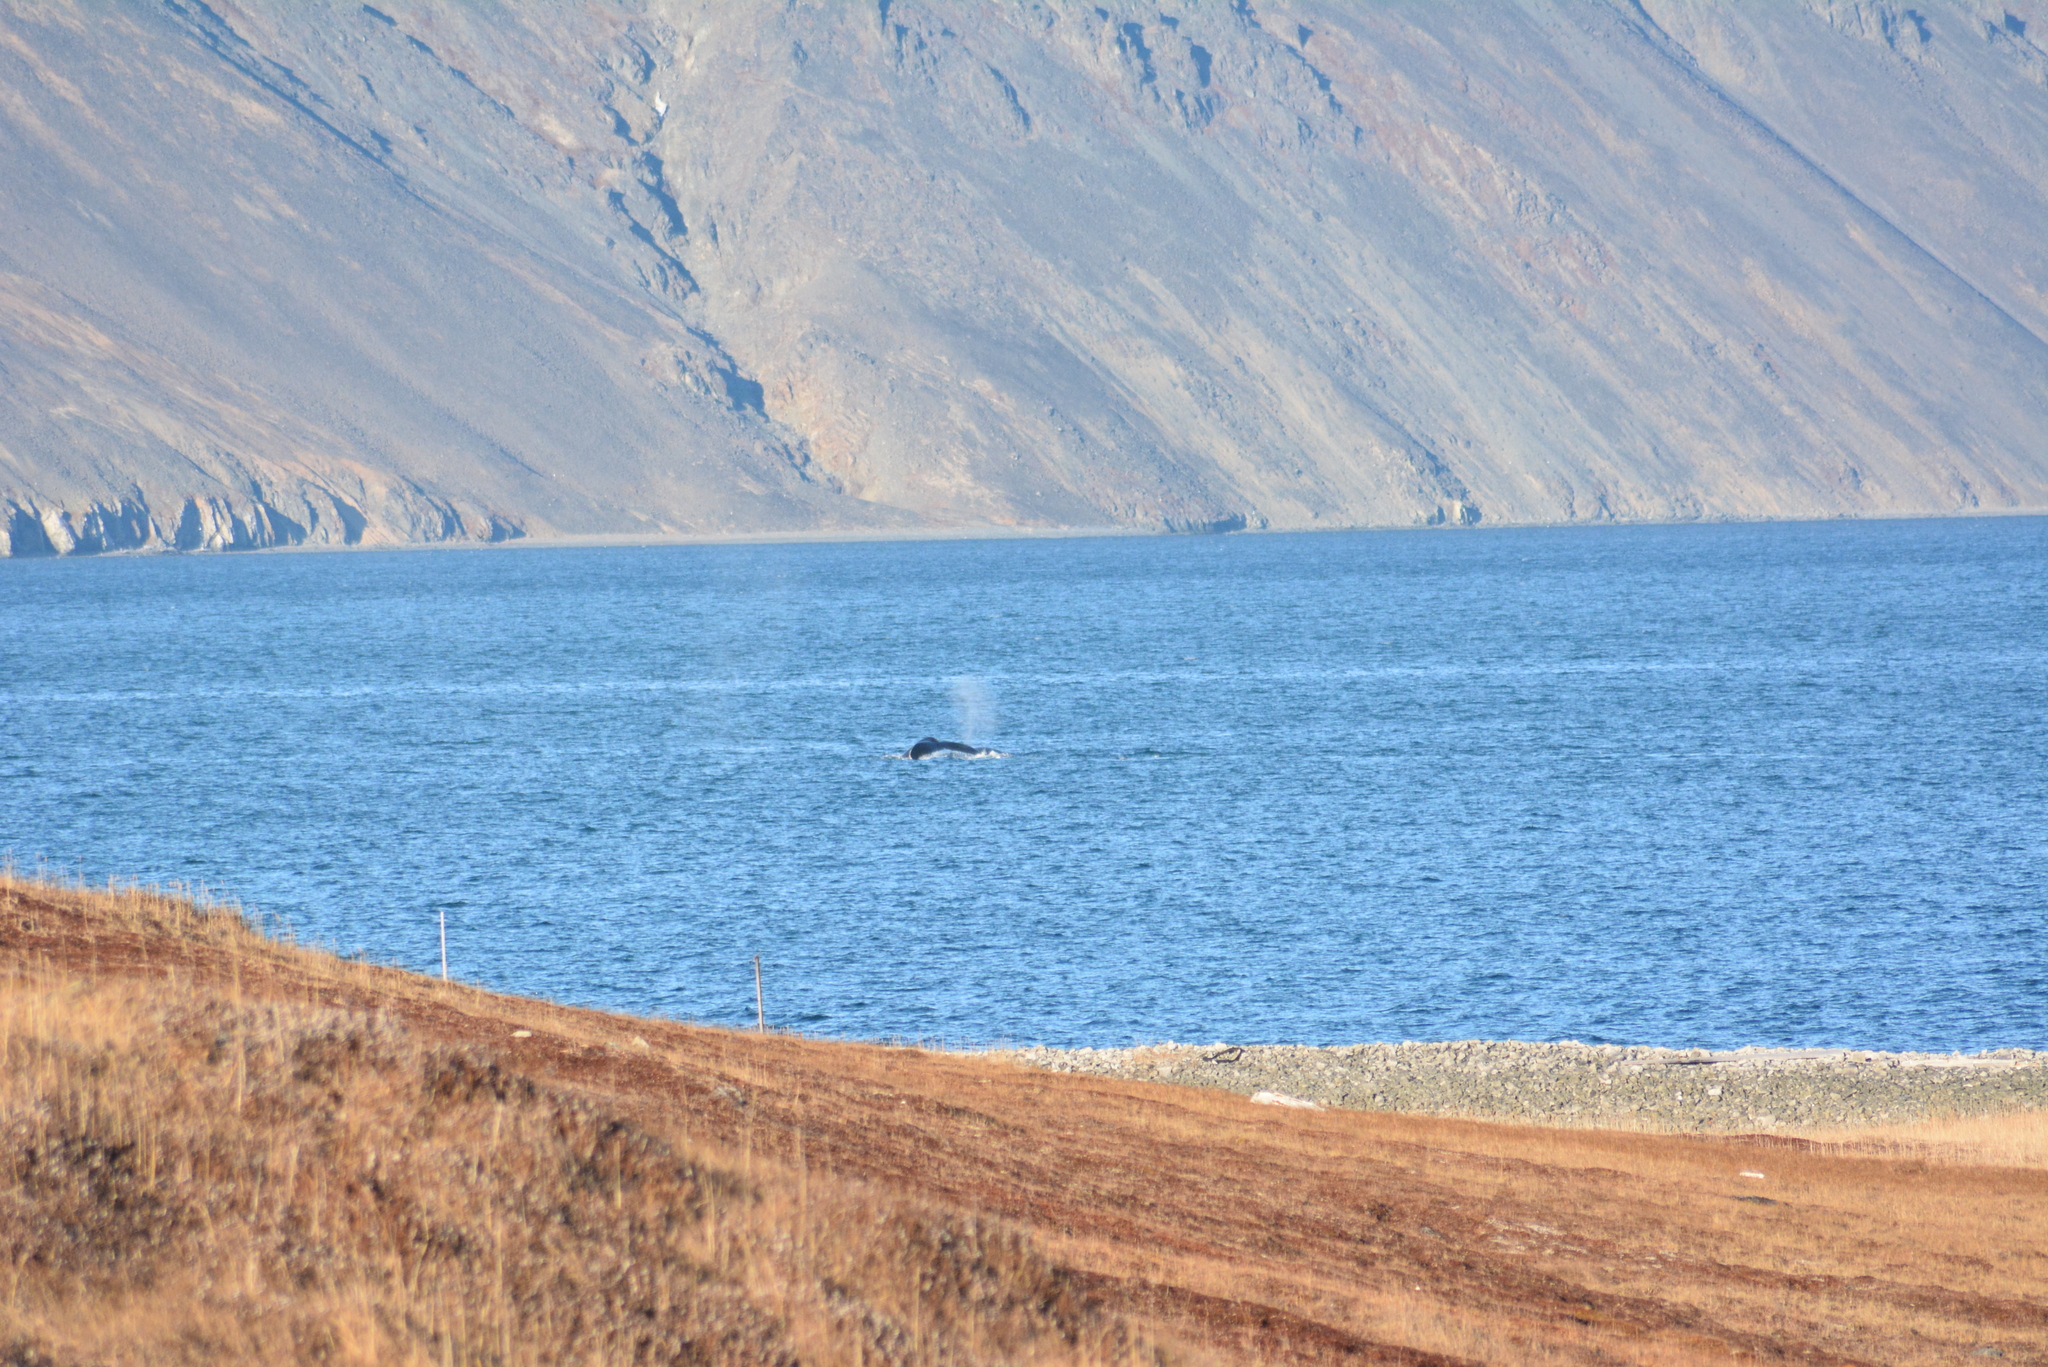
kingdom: Animalia
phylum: Chordata
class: Mammalia
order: Cetacea
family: Balaenopteridae
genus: Megaptera
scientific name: Megaptera novaeangliae
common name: Humpback whale
